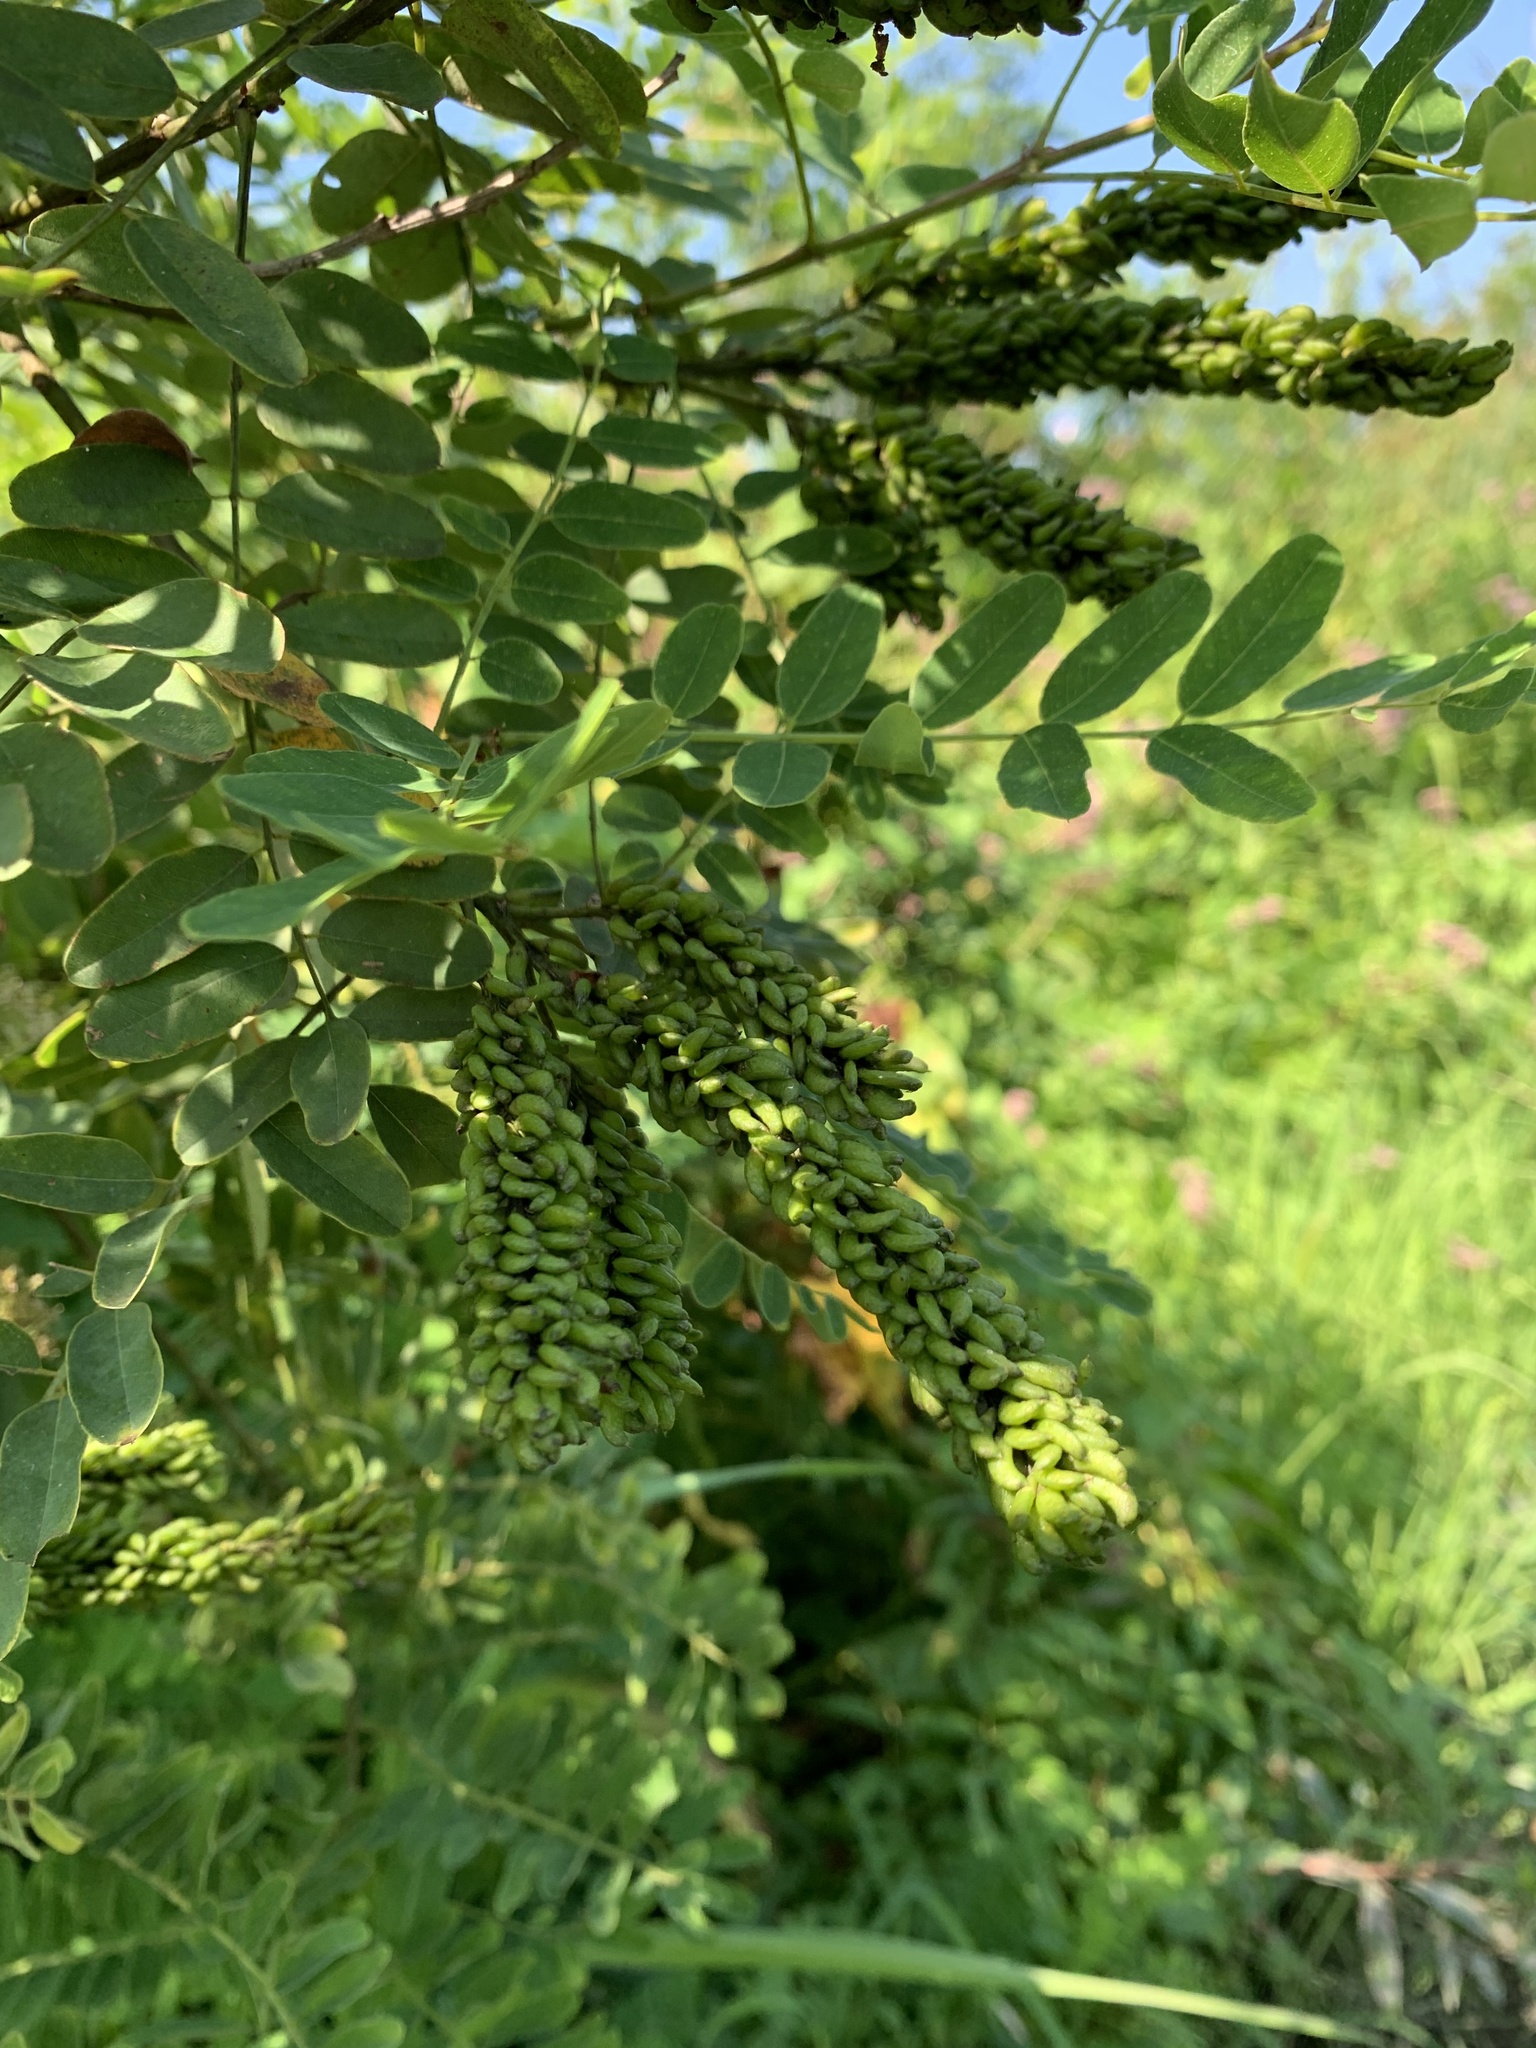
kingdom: Plantae
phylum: Tracheophyta
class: Magnoliopsida
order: Fabales
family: Fabaceae
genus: Amorpha
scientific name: Amorpha fruticosa
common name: False indigo
